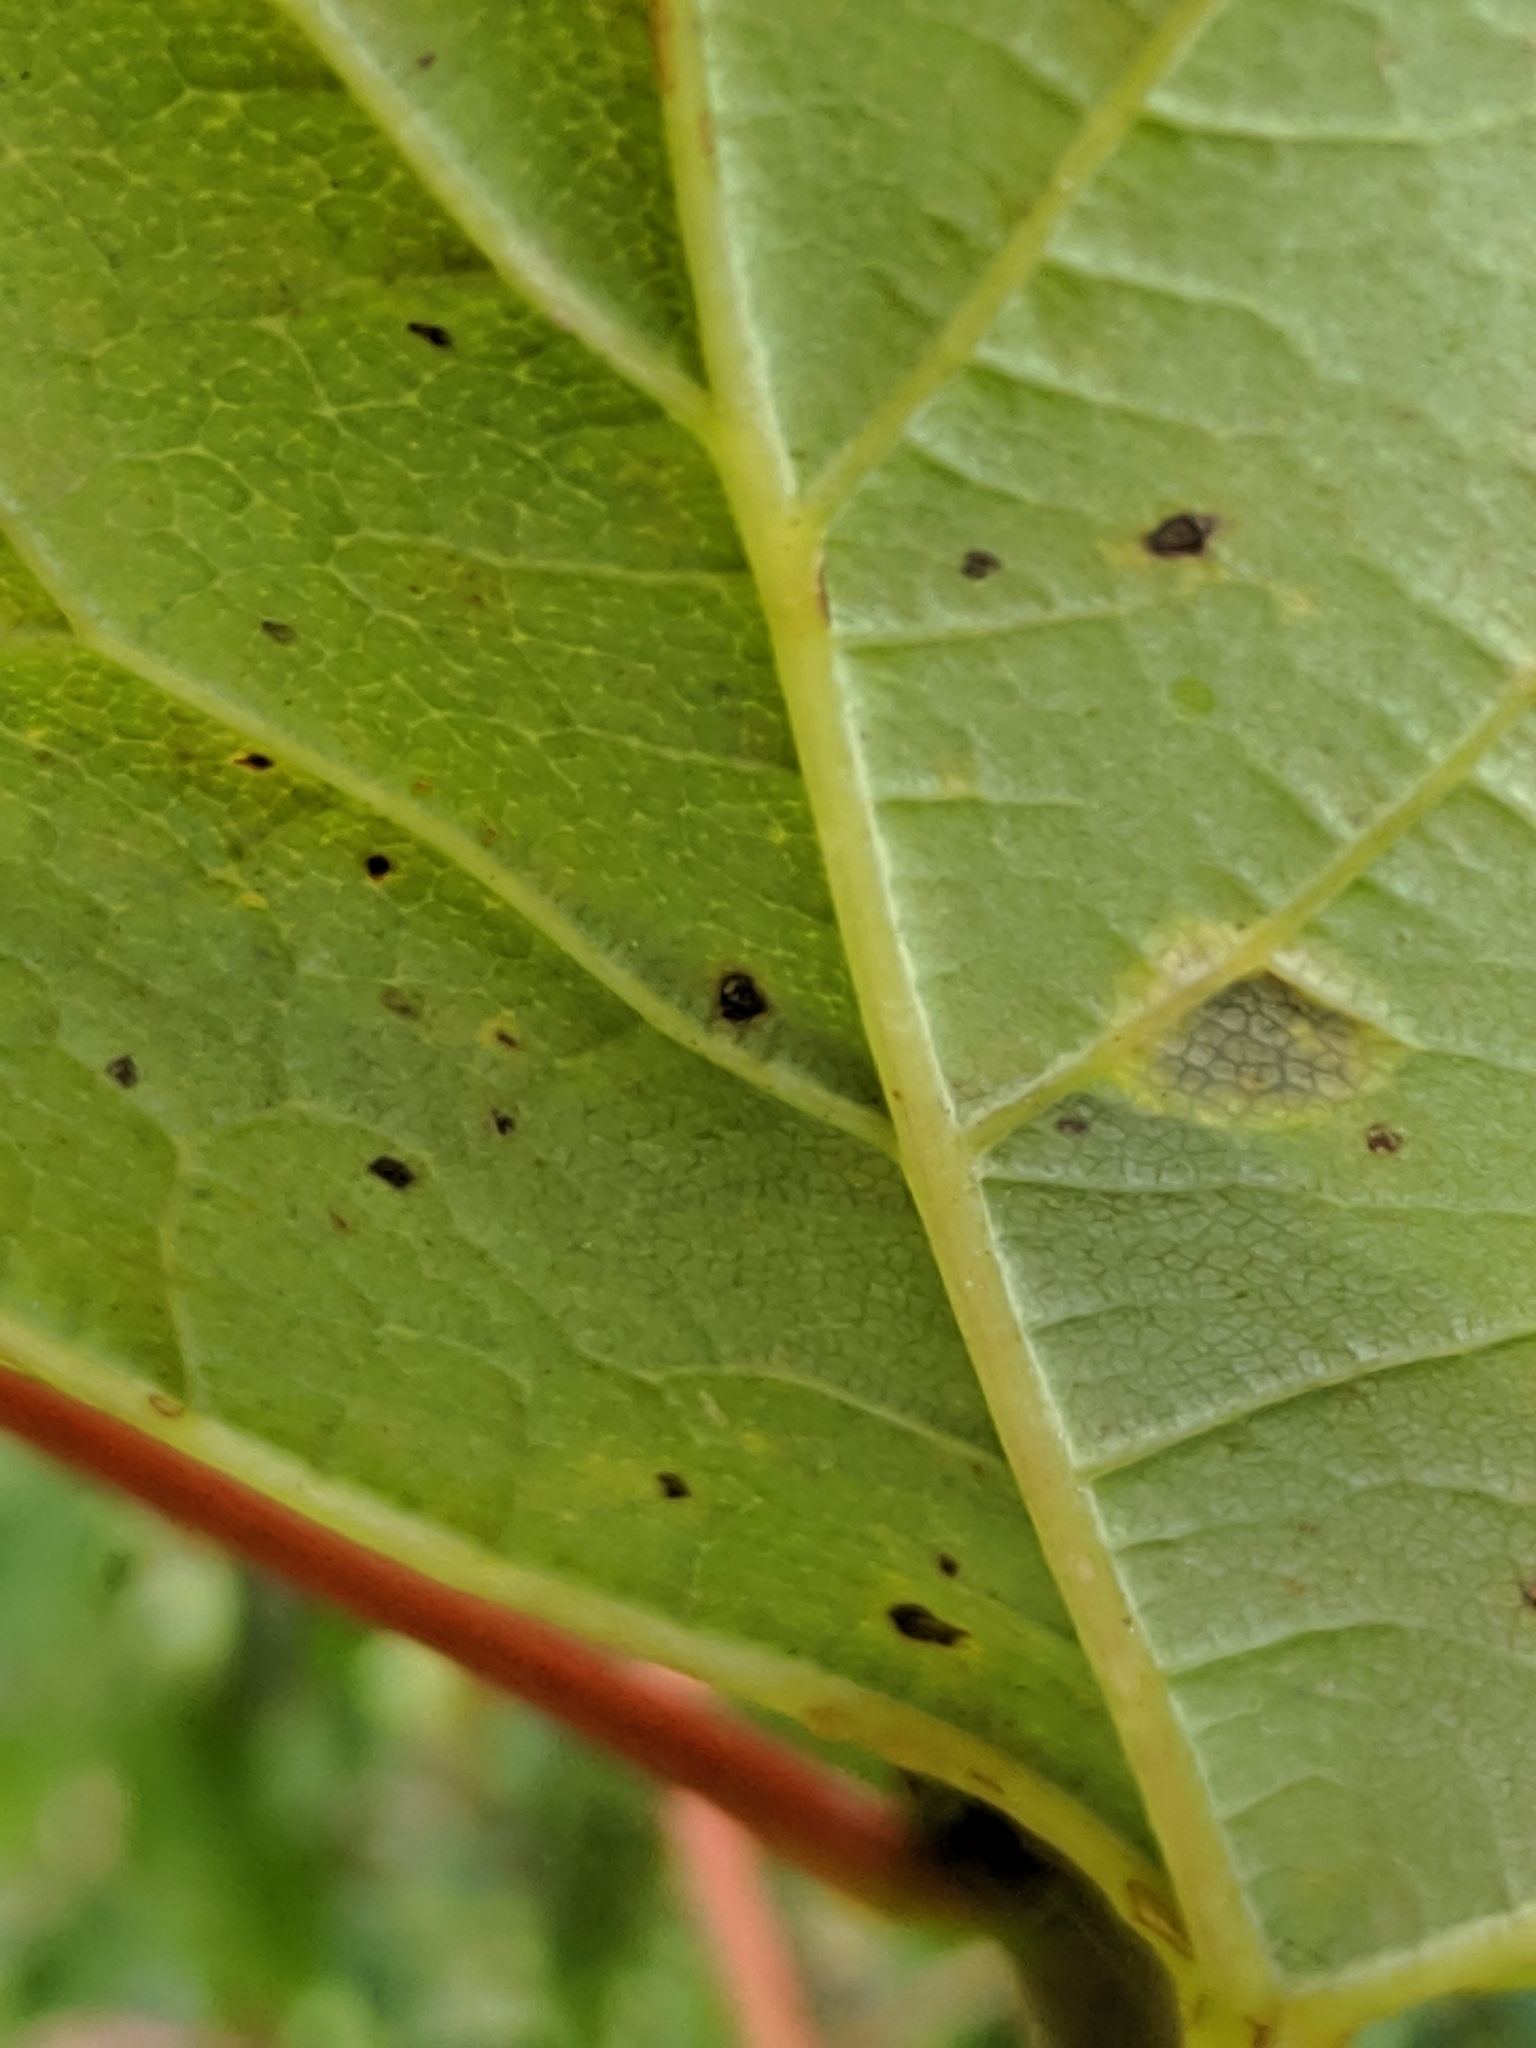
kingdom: Fungi
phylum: Ascomycota
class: Leotiomycetes
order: Rhytismatales
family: Rhytismataceae
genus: Rhytisma
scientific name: Rhytisma acerinum
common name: European tar spot
